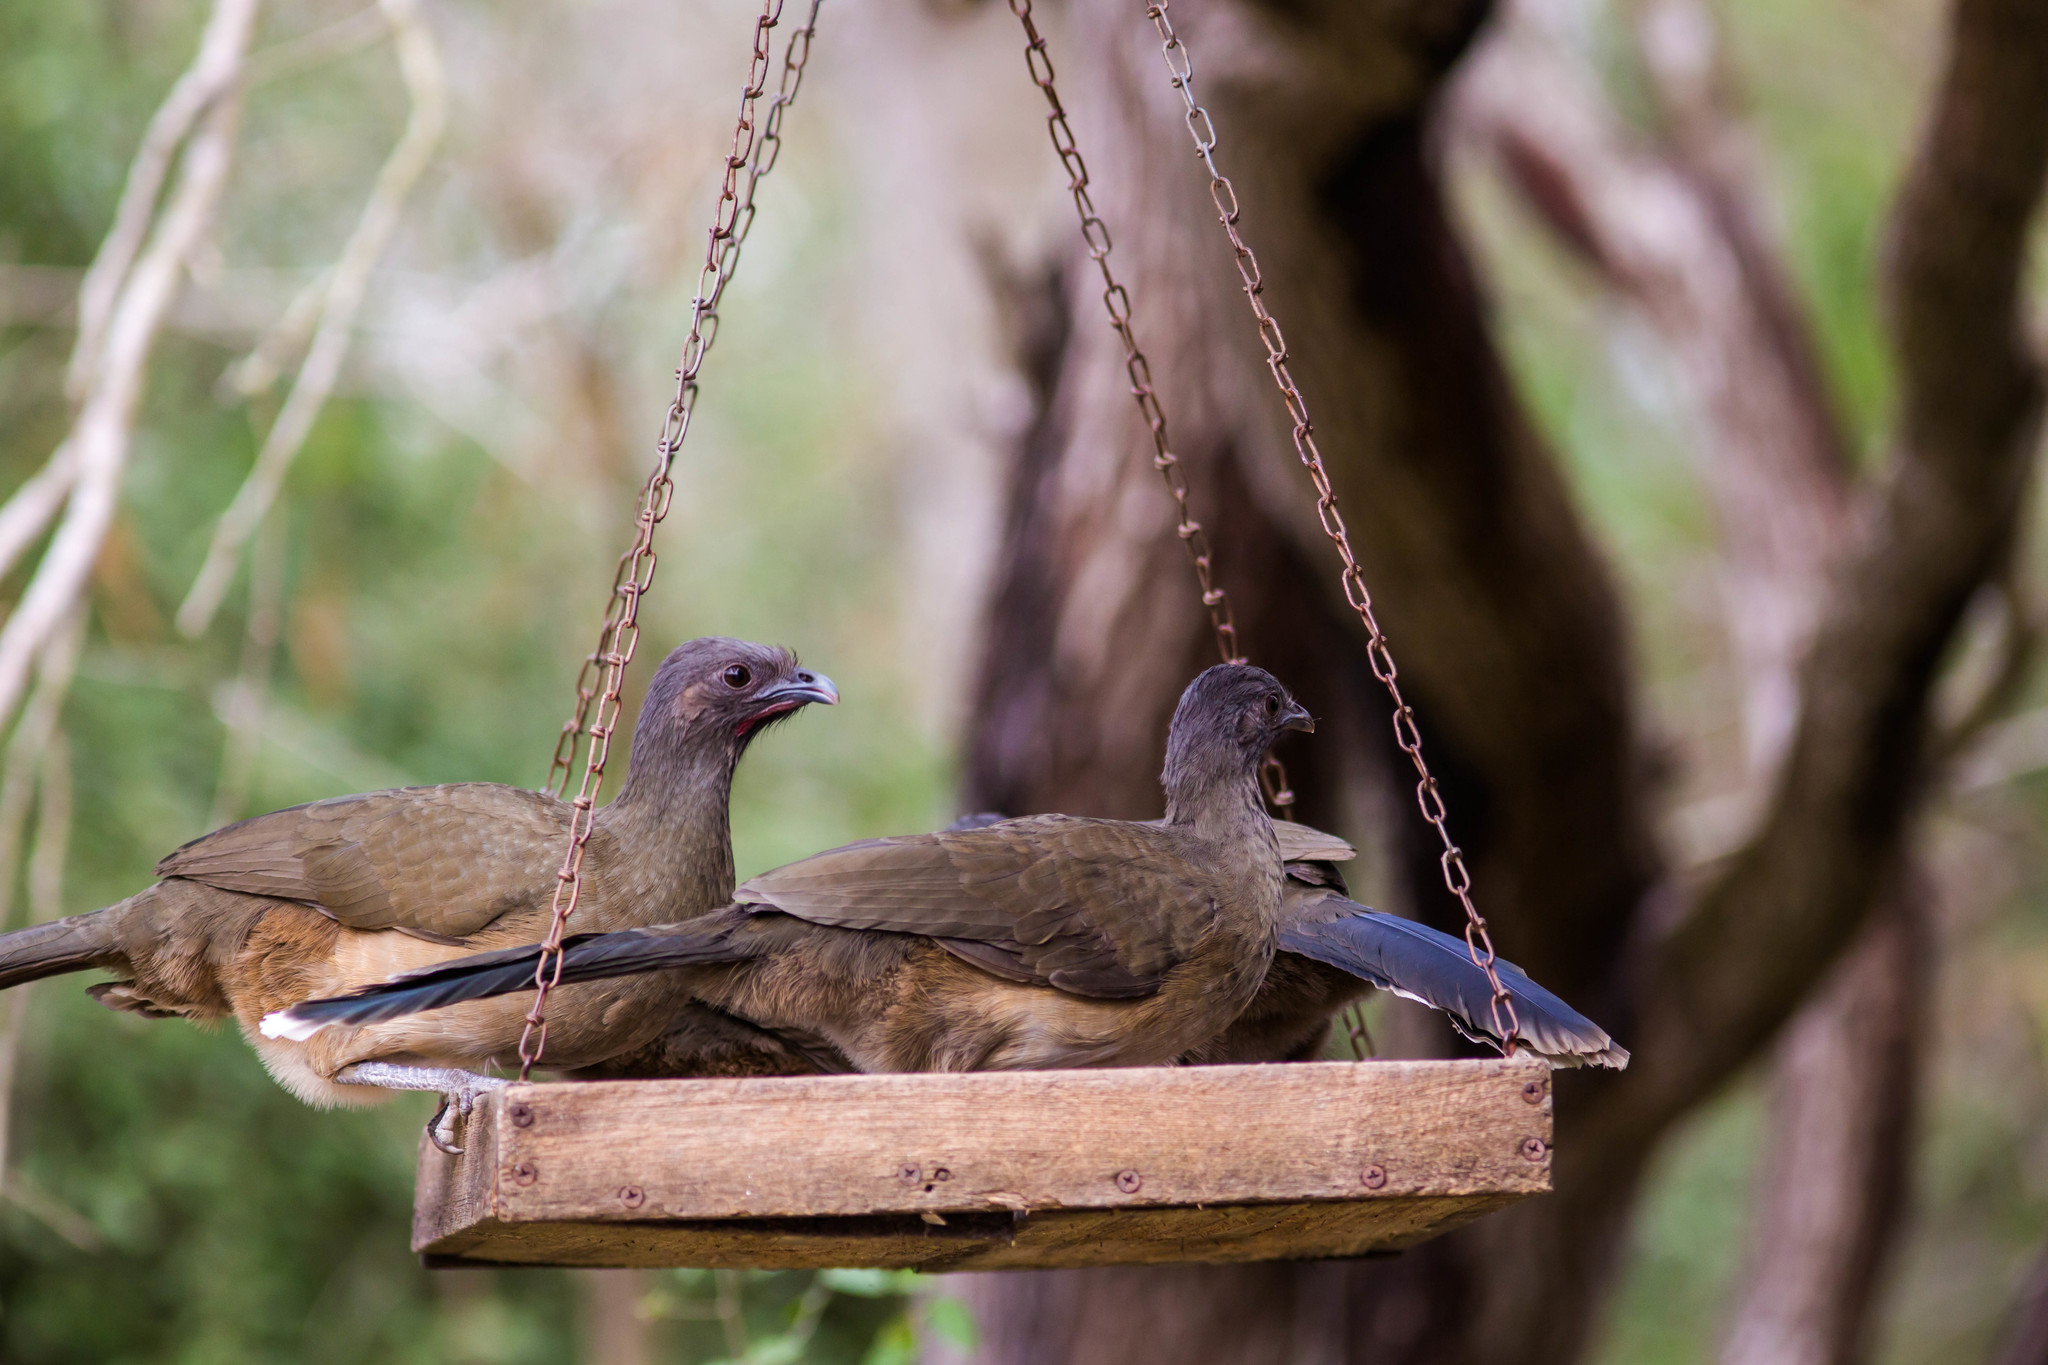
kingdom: Animalia
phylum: Chordata
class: Aves
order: Galliformes
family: Cracidae
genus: Ortalis
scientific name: Ortalis vetula
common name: Plain chachalaca
